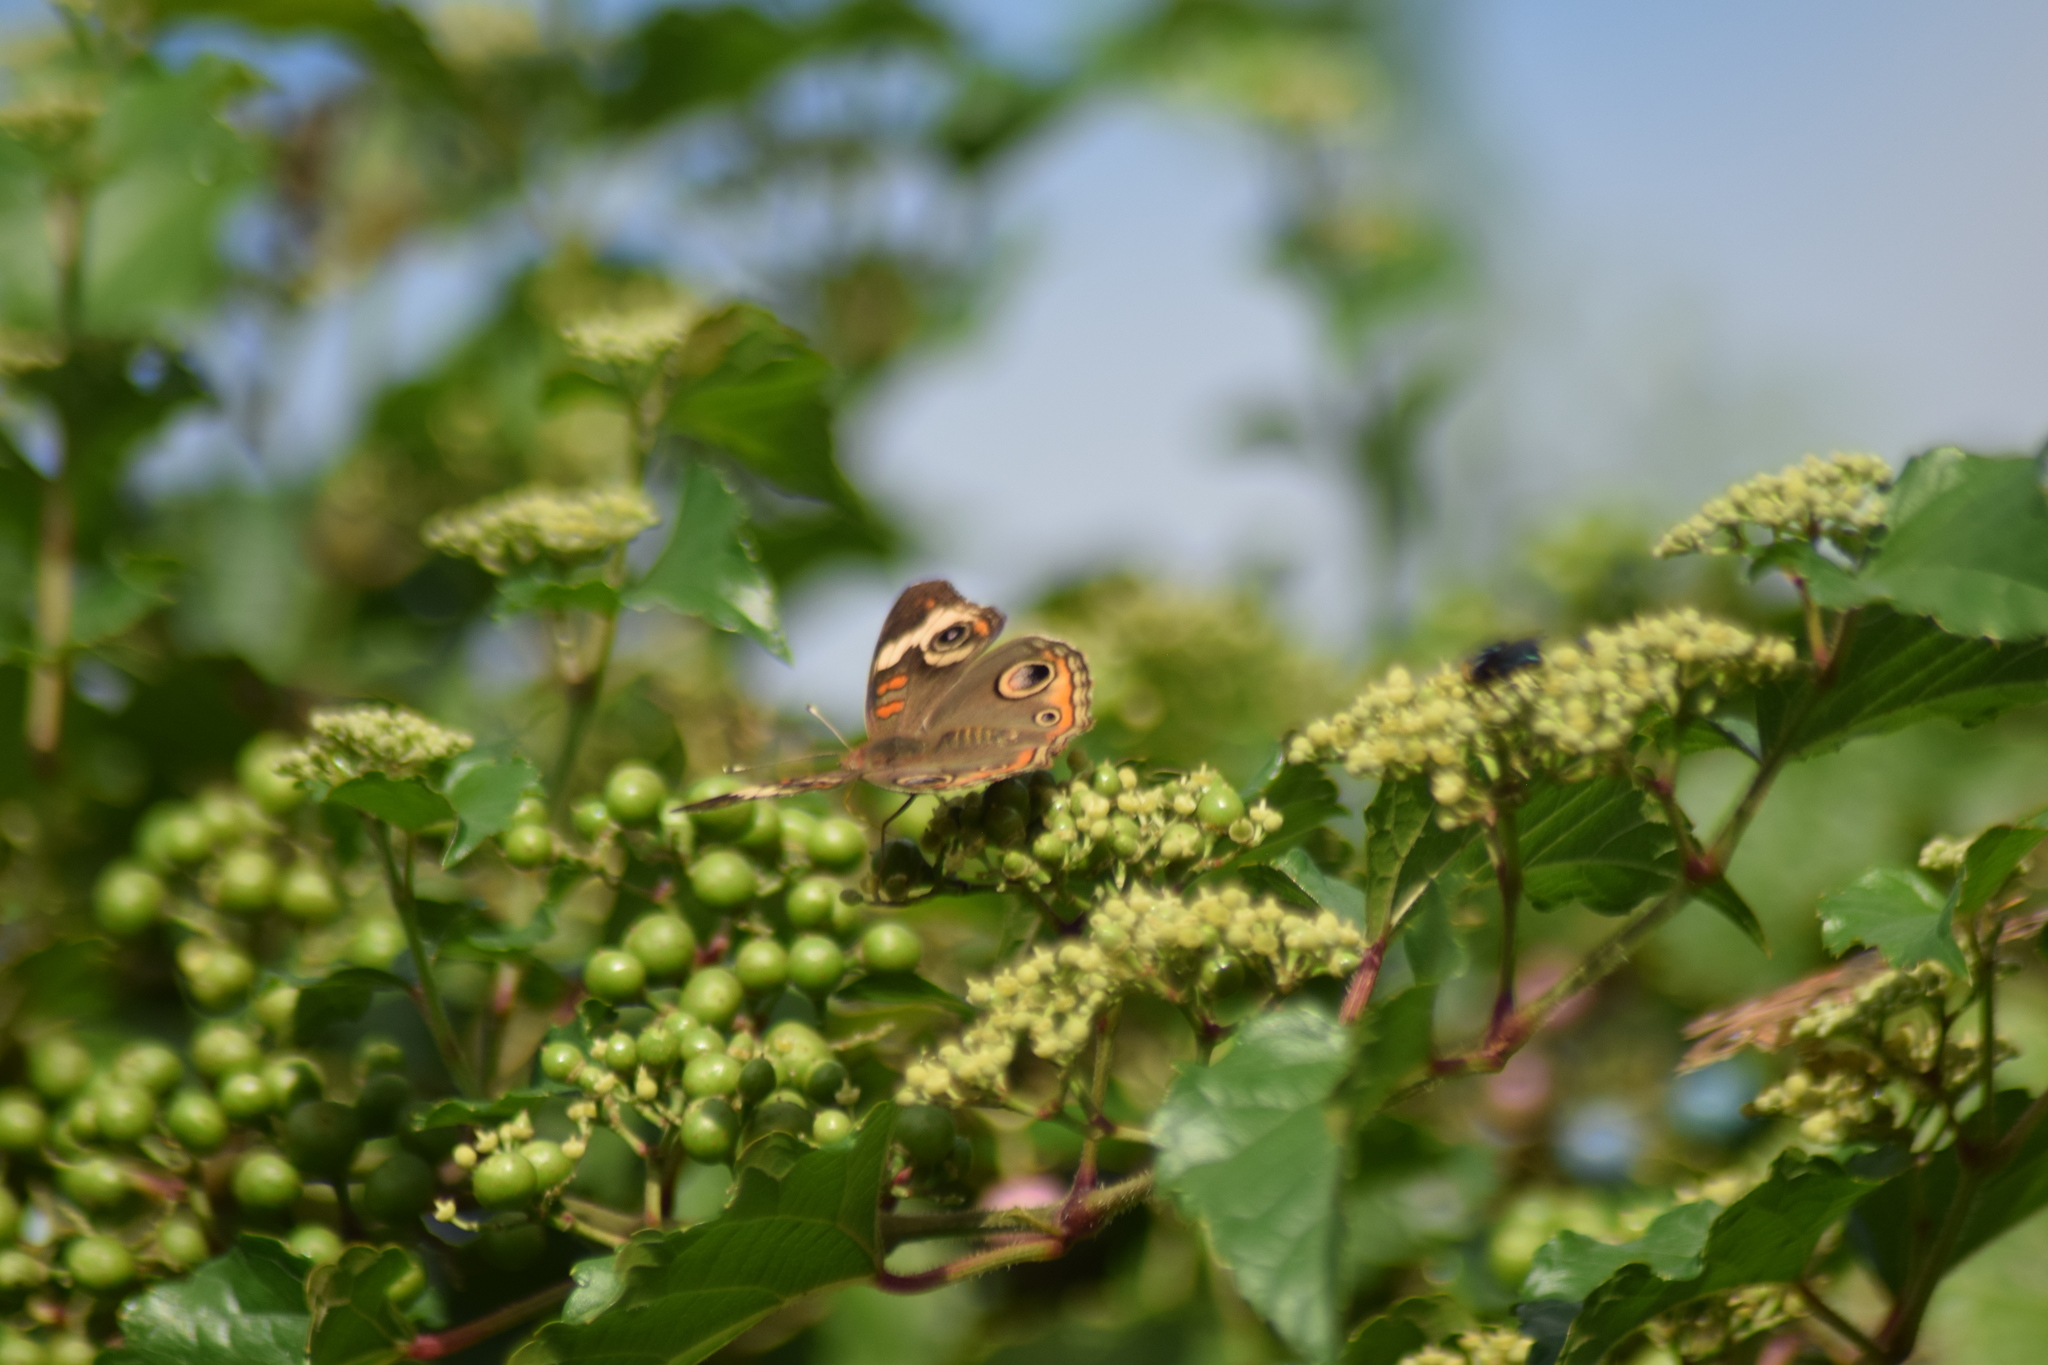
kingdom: Animalia
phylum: Arthropoda
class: Insecta
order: Lepidoptera
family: Nymphalidae
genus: Junonia
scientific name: Junonia coenia
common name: Common buckeye
